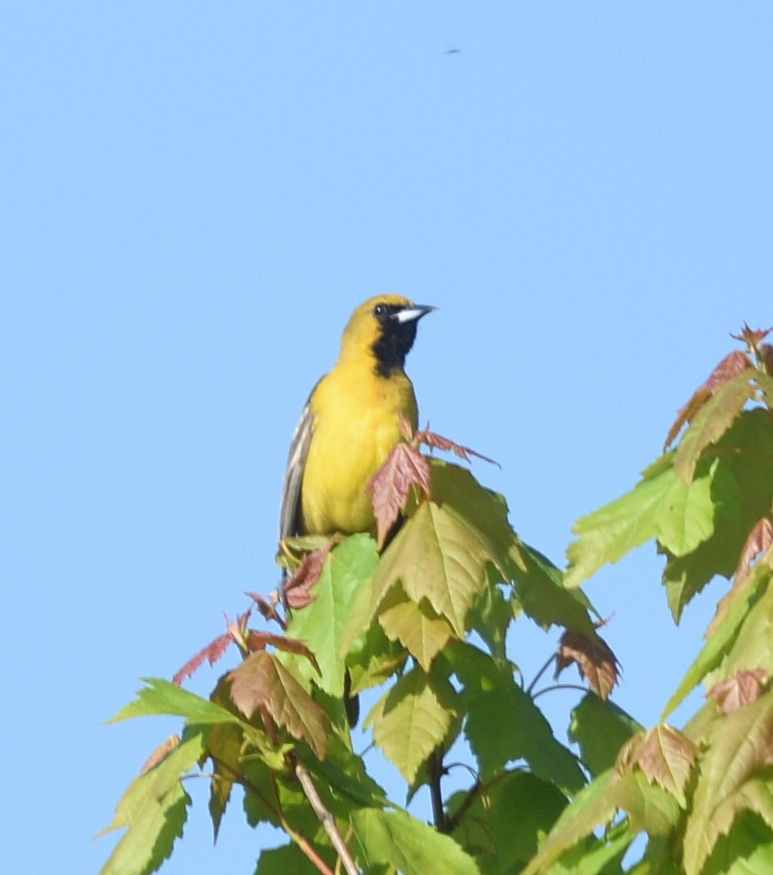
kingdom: Animalia
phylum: Chordata
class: Aves
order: Passeriformes
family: Icteridae
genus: Icterus
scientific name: Icterus spurius
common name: Orchard oriole
